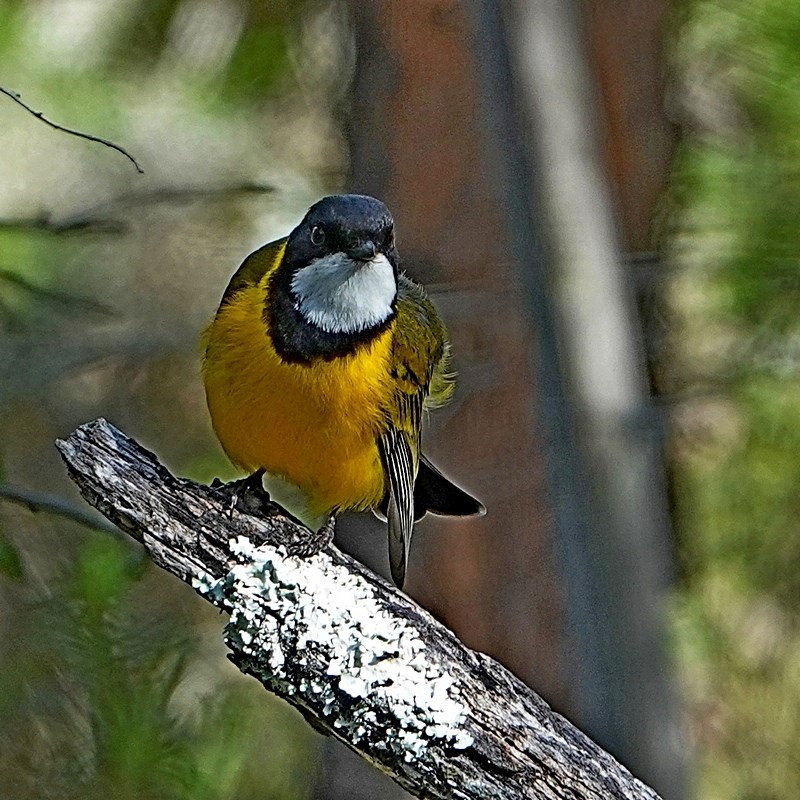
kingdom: Animalia
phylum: Chordata
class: Aves
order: Passeriformes
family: Pachycephalidae
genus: Pachycephala
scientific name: Pachycephala pectoralis
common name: Australian golden whistler
